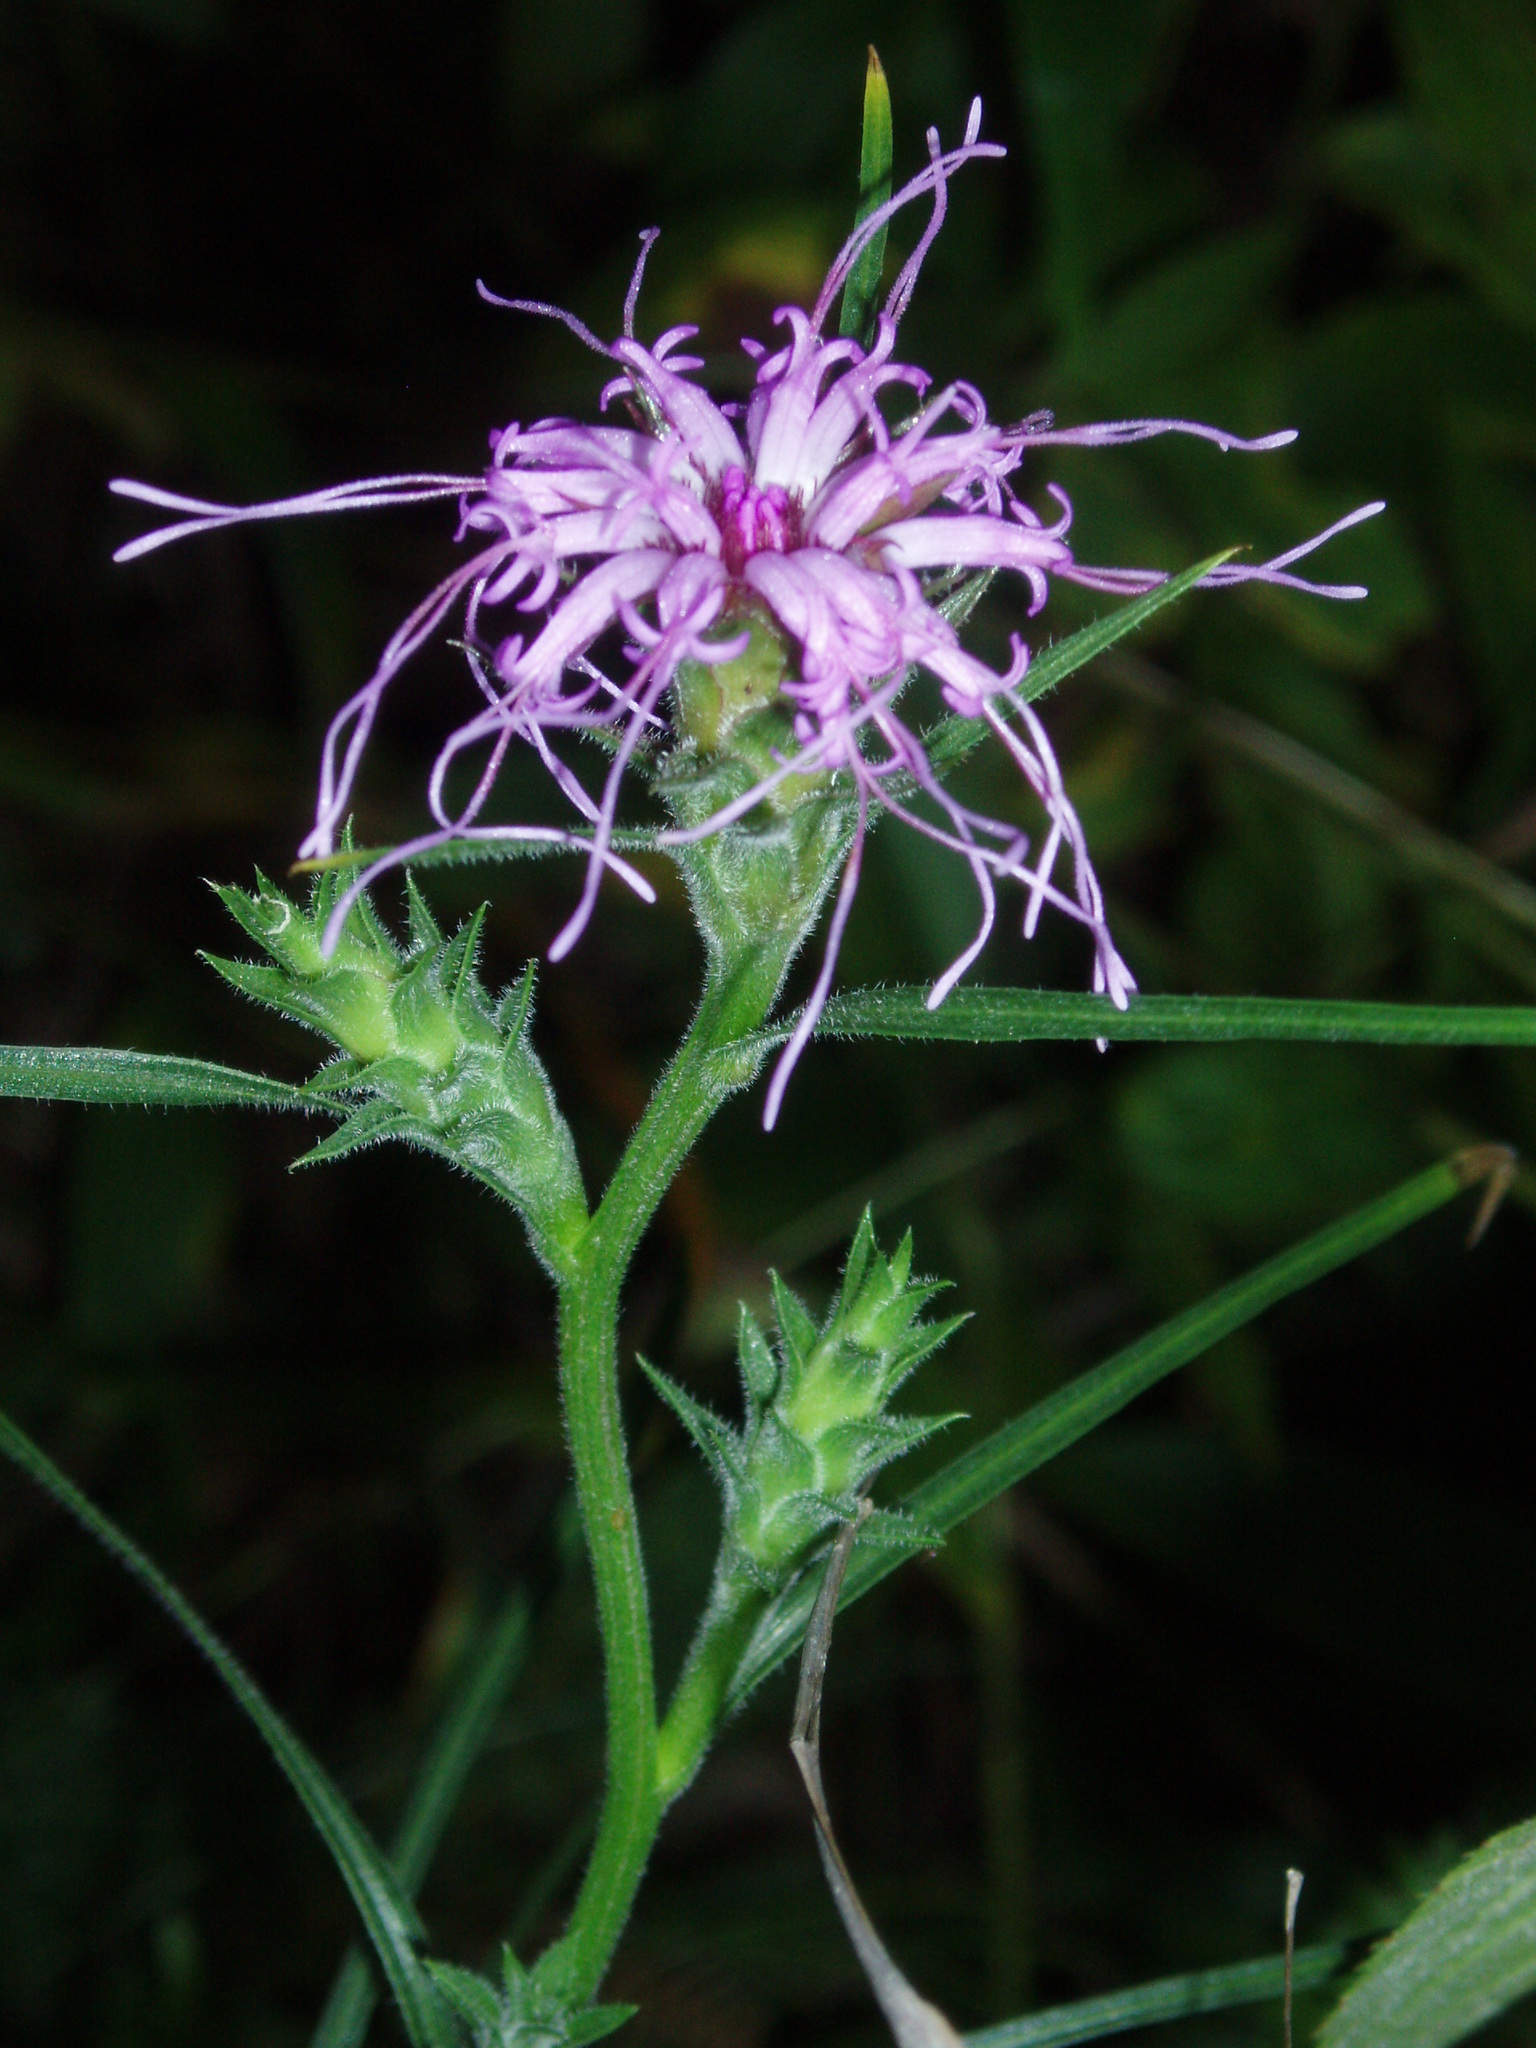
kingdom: Plantae
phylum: Tracheophyta
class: Magnoliopsida
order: Asterales
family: Asteraceae
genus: Liatris
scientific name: Liatris squarrosa
